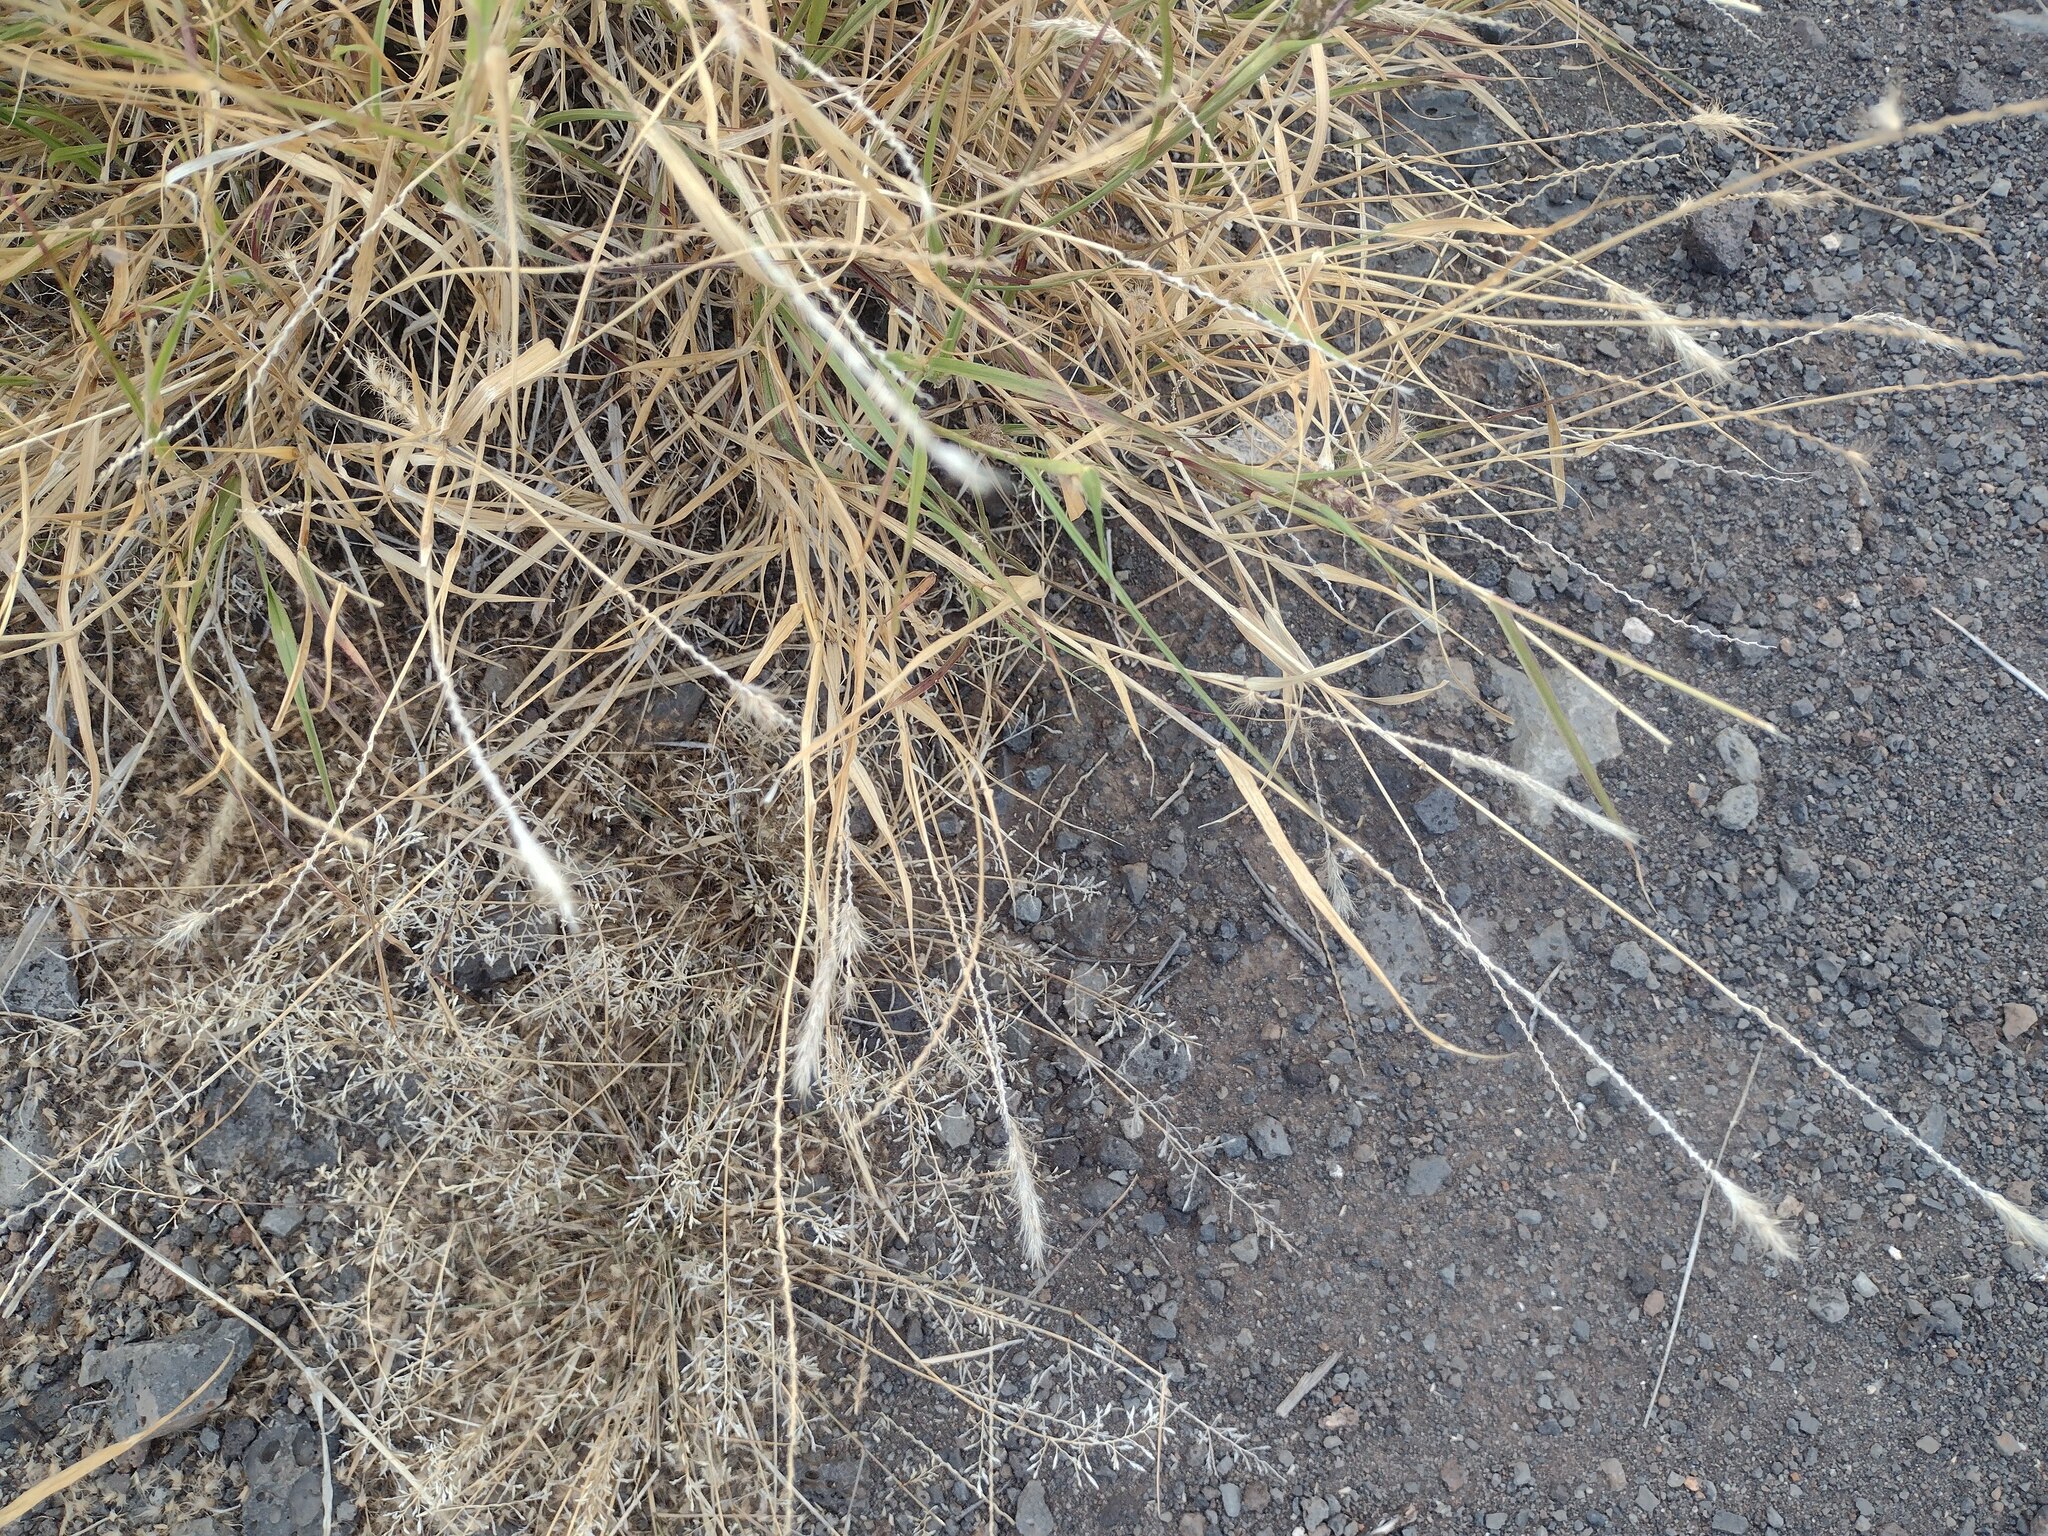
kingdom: Plantae
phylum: Tracheophyta
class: Liliopsida
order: Poales
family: Poaceae
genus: Cenchrus
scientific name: Cenchrus ciliaris
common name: Buffelgrass
